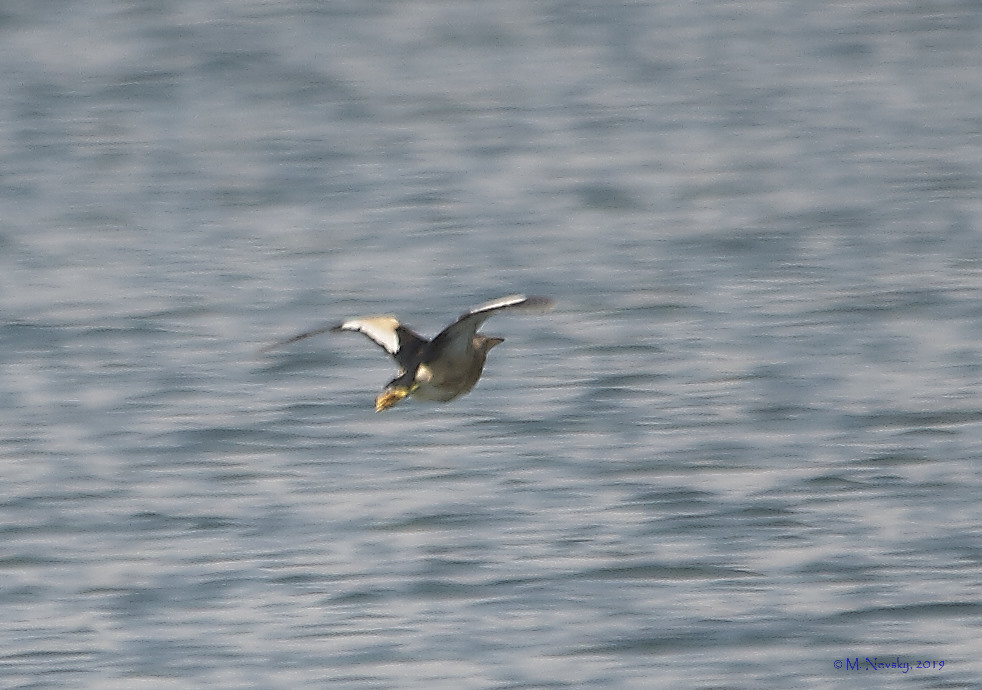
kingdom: Animalia
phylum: Chordata
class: Aves
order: Pelecaniformes
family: Ardeidae
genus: Ixobrychus
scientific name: Ixobrychus minutus
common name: Little bittern
